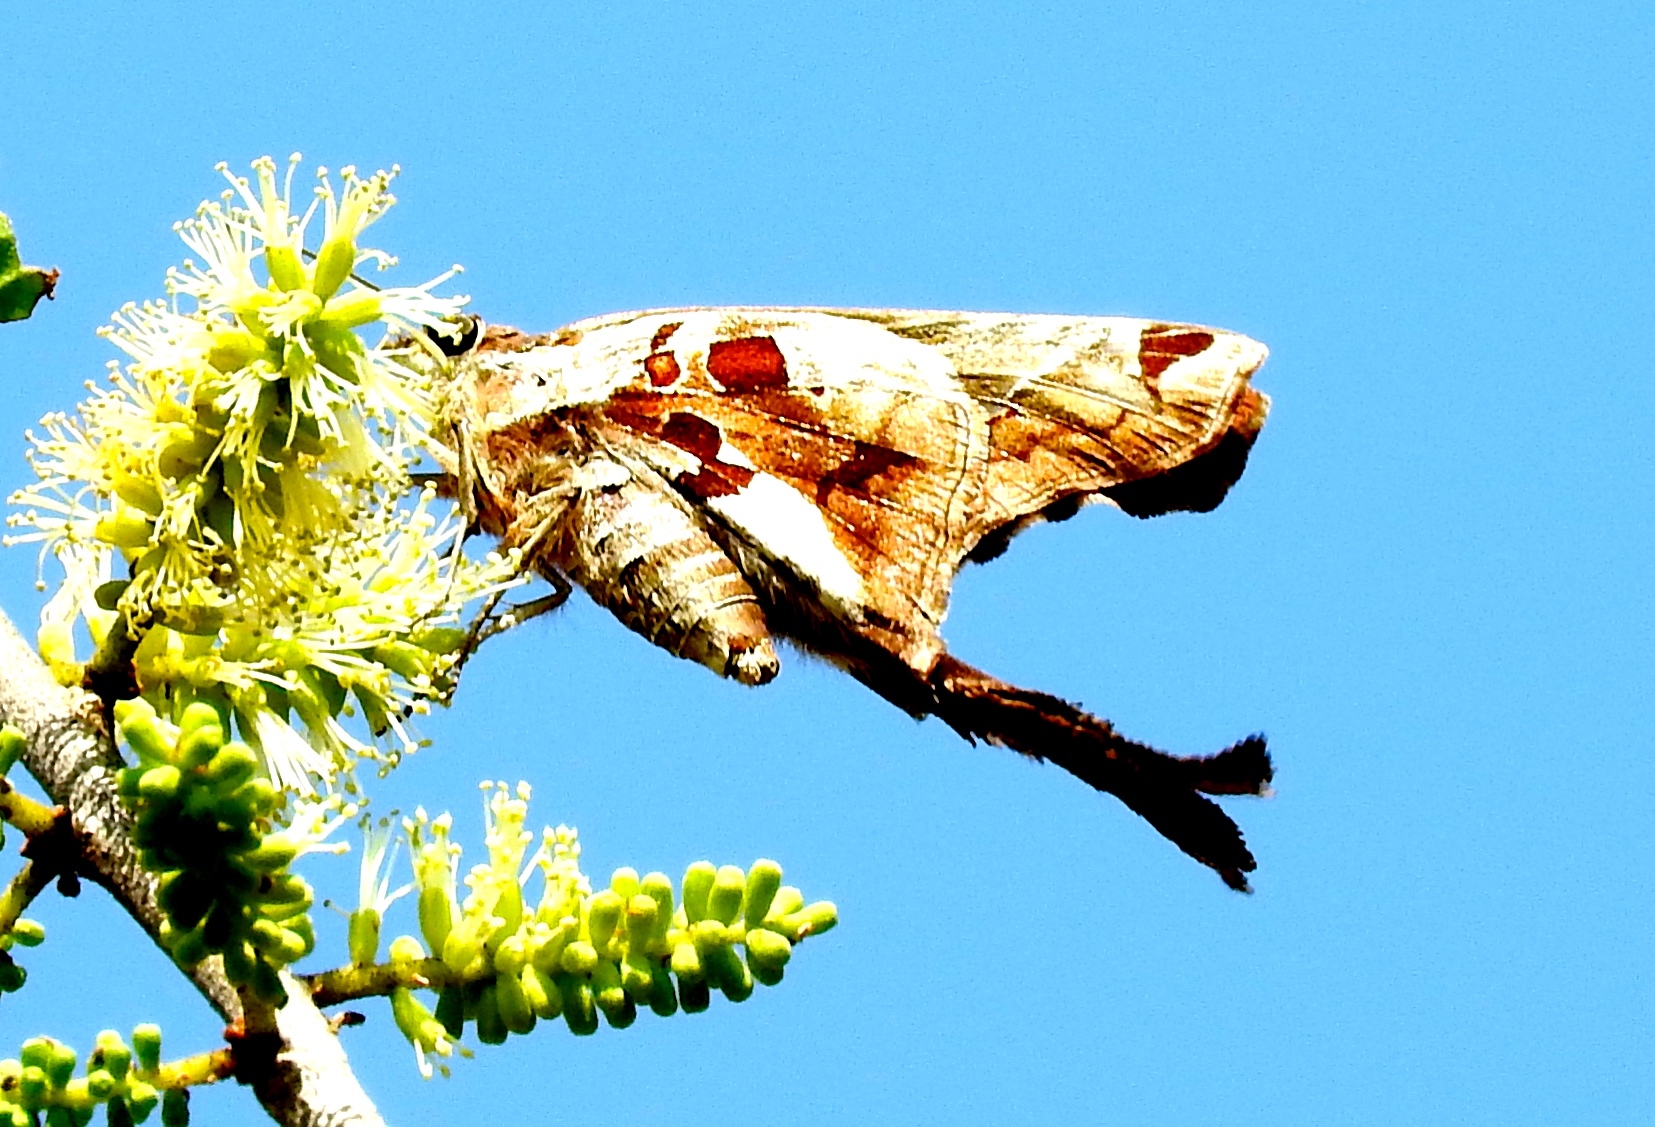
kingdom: Animalia
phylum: Arthropoda
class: Insecta
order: Lepidoptera
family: Hesperiidae
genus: Chioides
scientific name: Chioides zilpa
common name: Zilpa longtail
